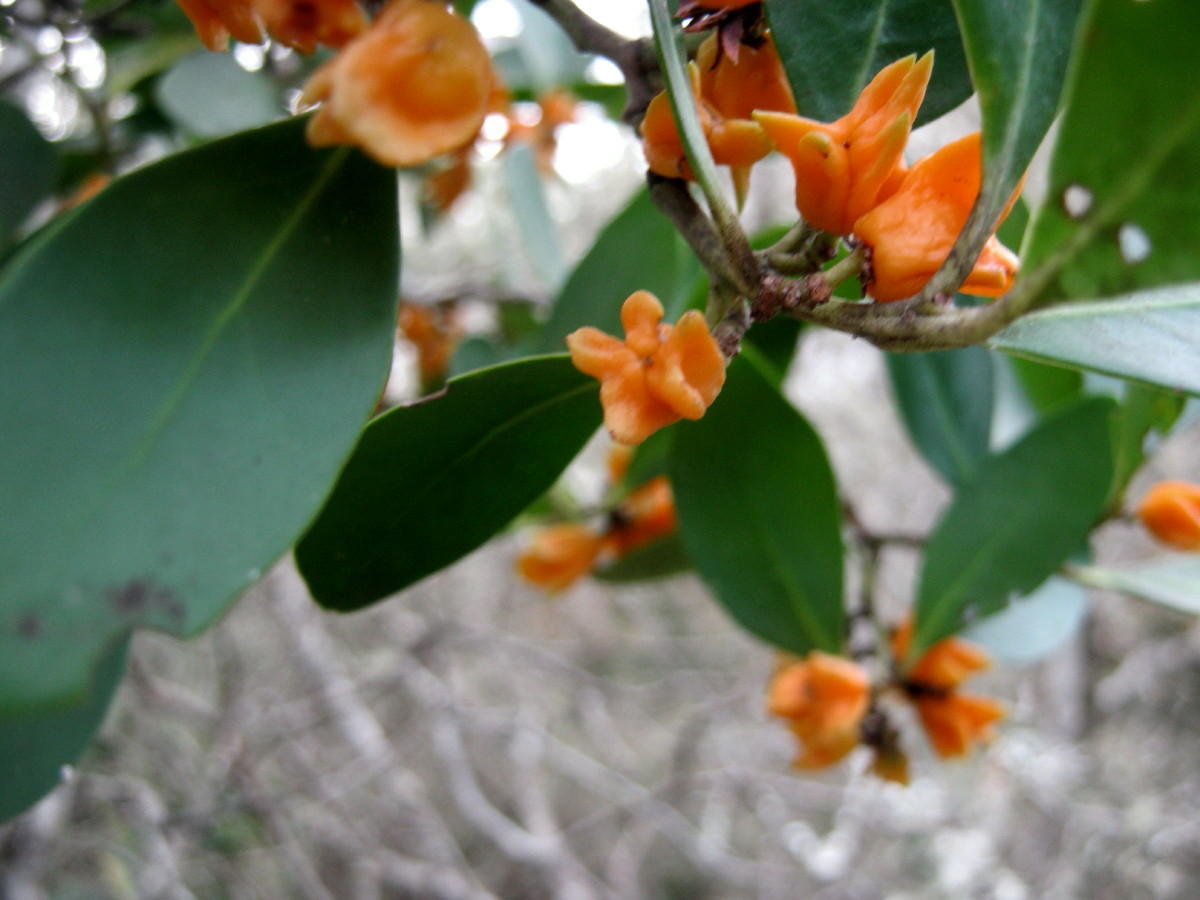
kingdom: Plantae
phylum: Tracheophyta
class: Magnoliopsida
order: Celastrales
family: Celastraceae
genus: Pterocelastrus
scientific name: Pterocelastrus tricuspidatus
